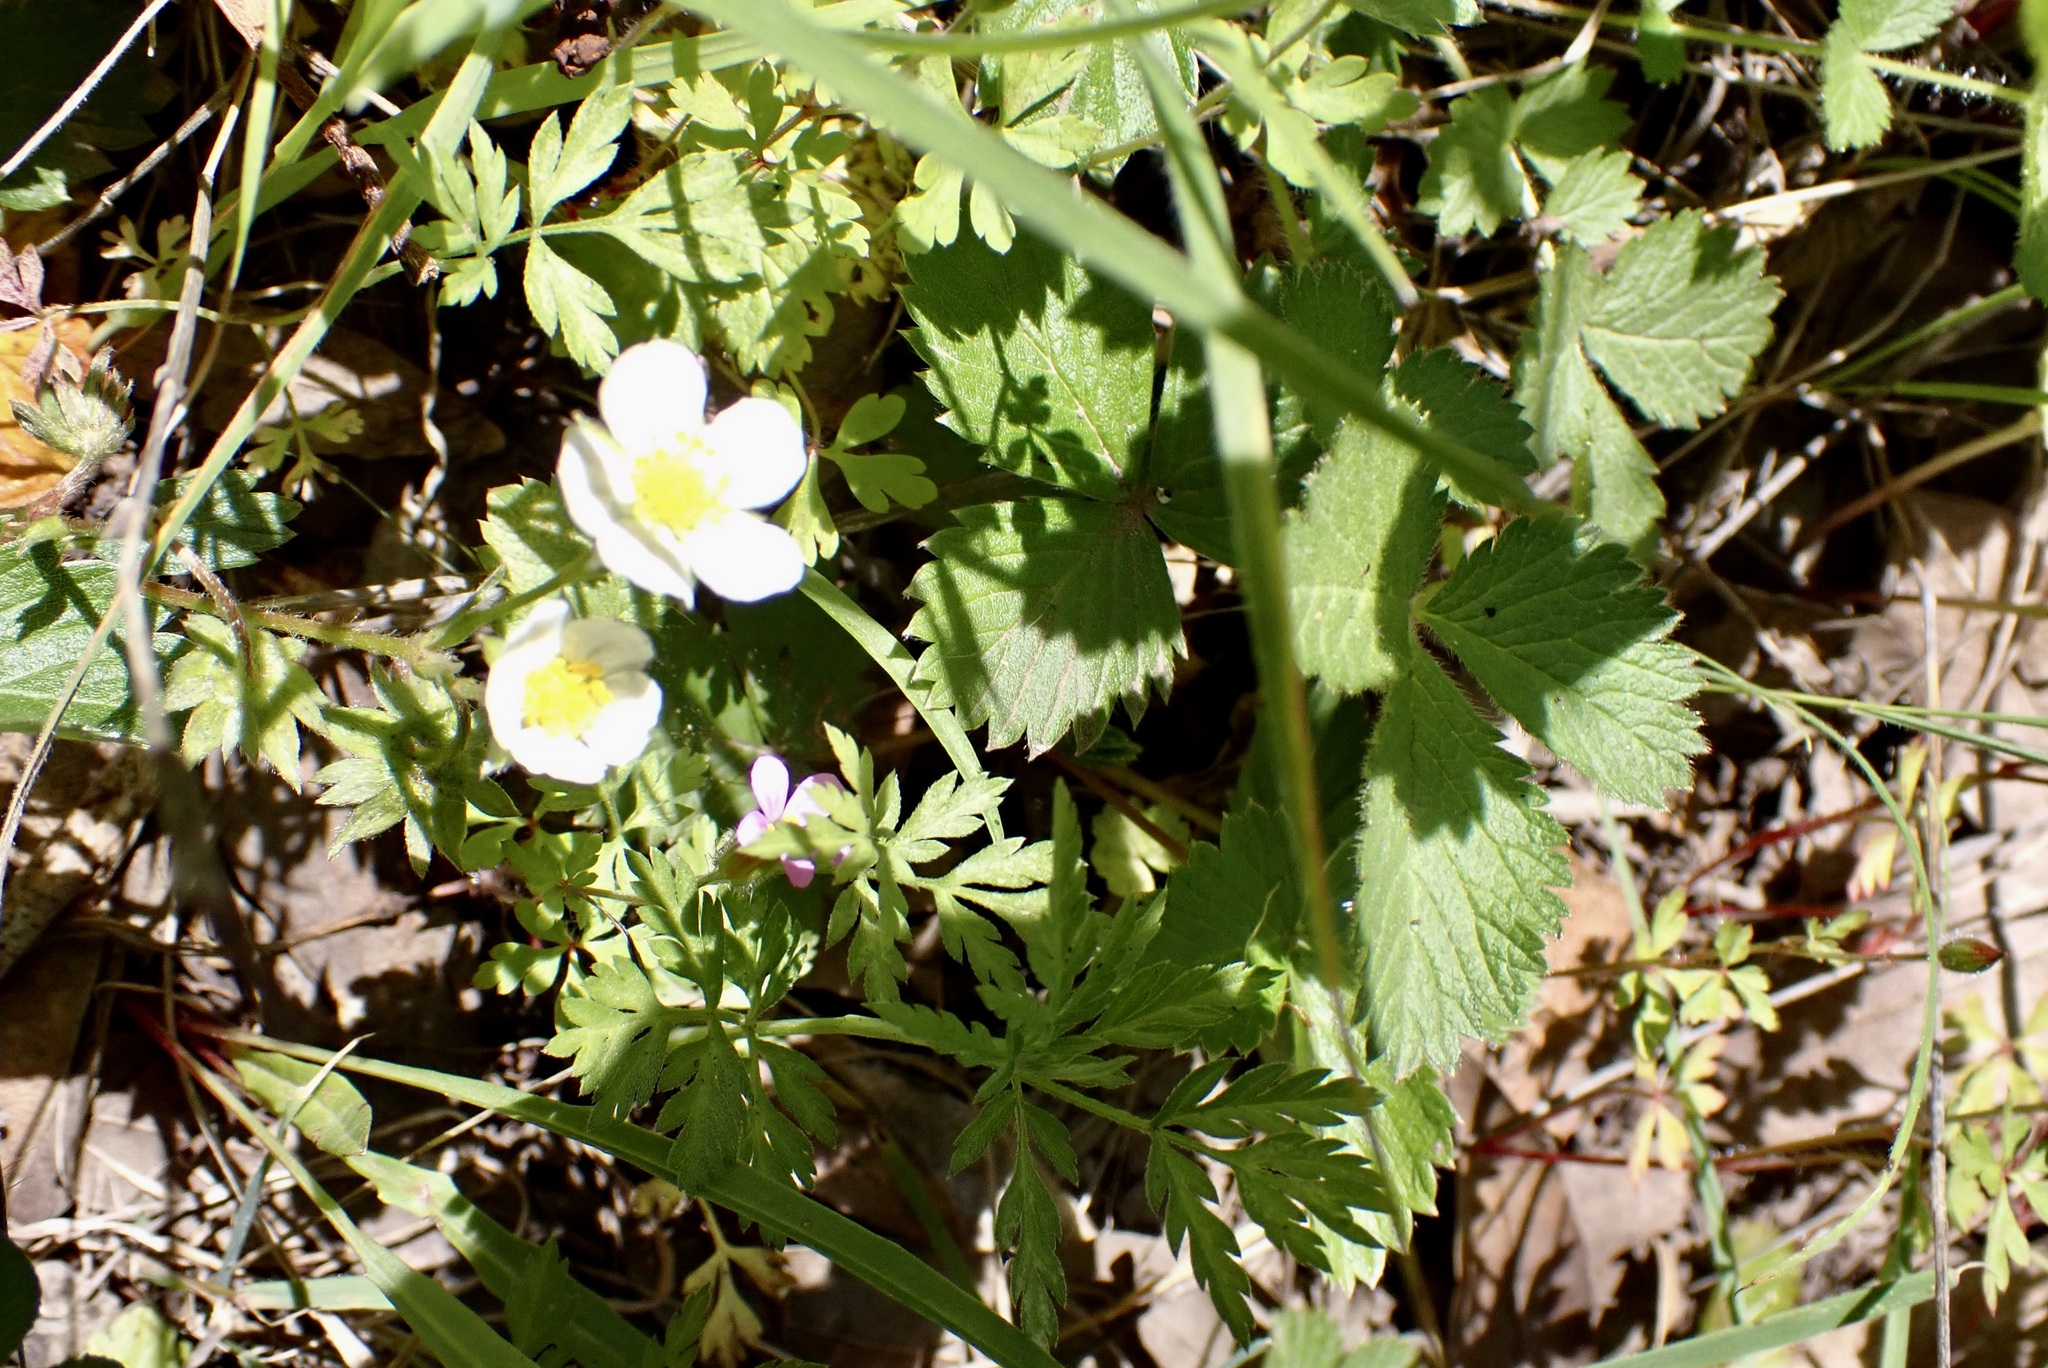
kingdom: Plantae
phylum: Tracheophyta
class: Magnoliopsida
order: Rosales
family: Rosaceae
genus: Fragaria
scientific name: Fragaria vesca
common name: Wild strawberry
